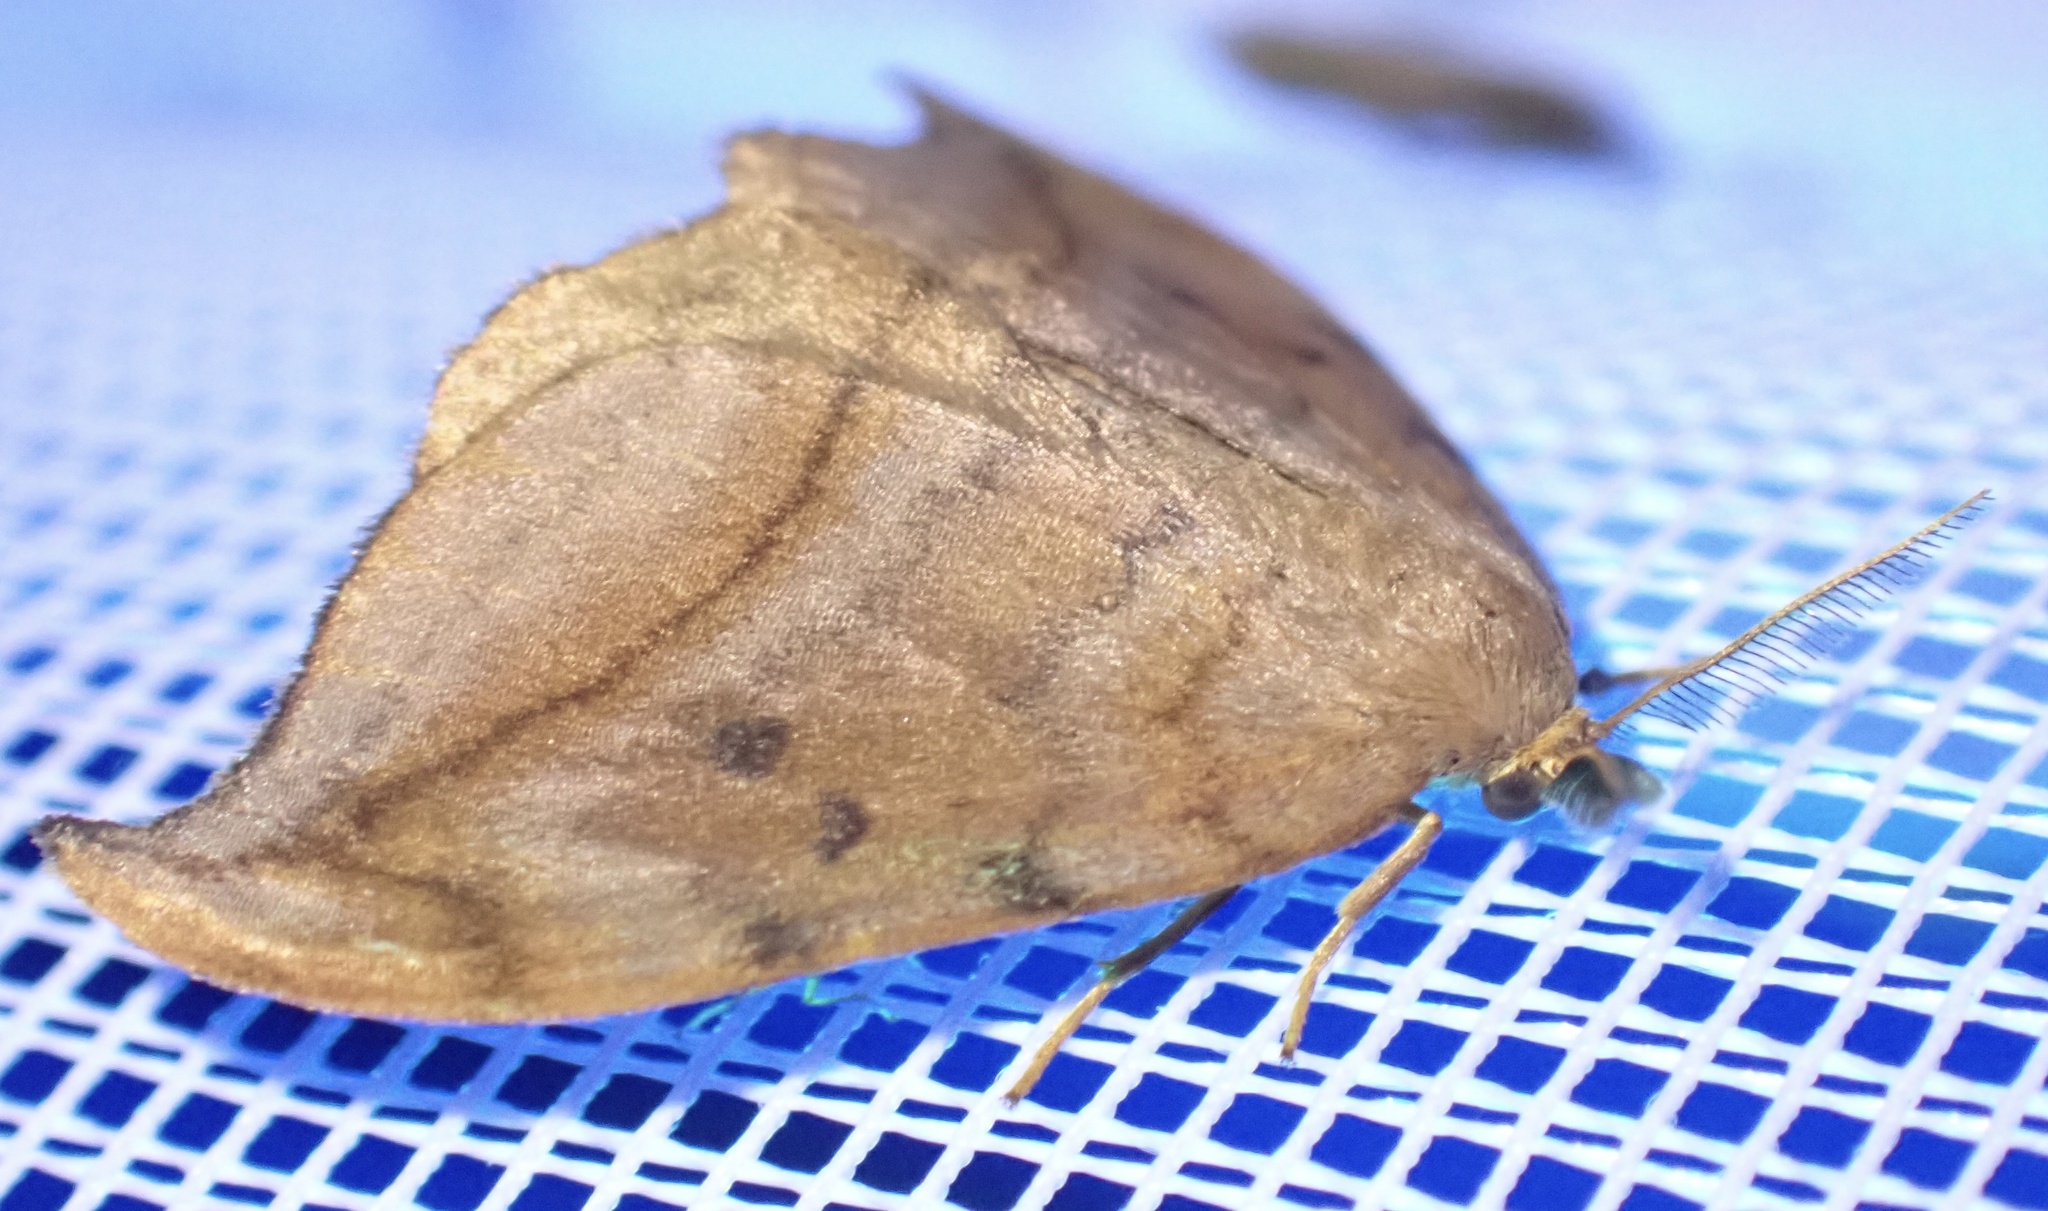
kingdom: Animalia
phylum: Arthropoda
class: Insecta
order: Lepidoptera
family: Drepanidae
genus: Drepana
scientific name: Drepana curvatula
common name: Dusky hook-tip
